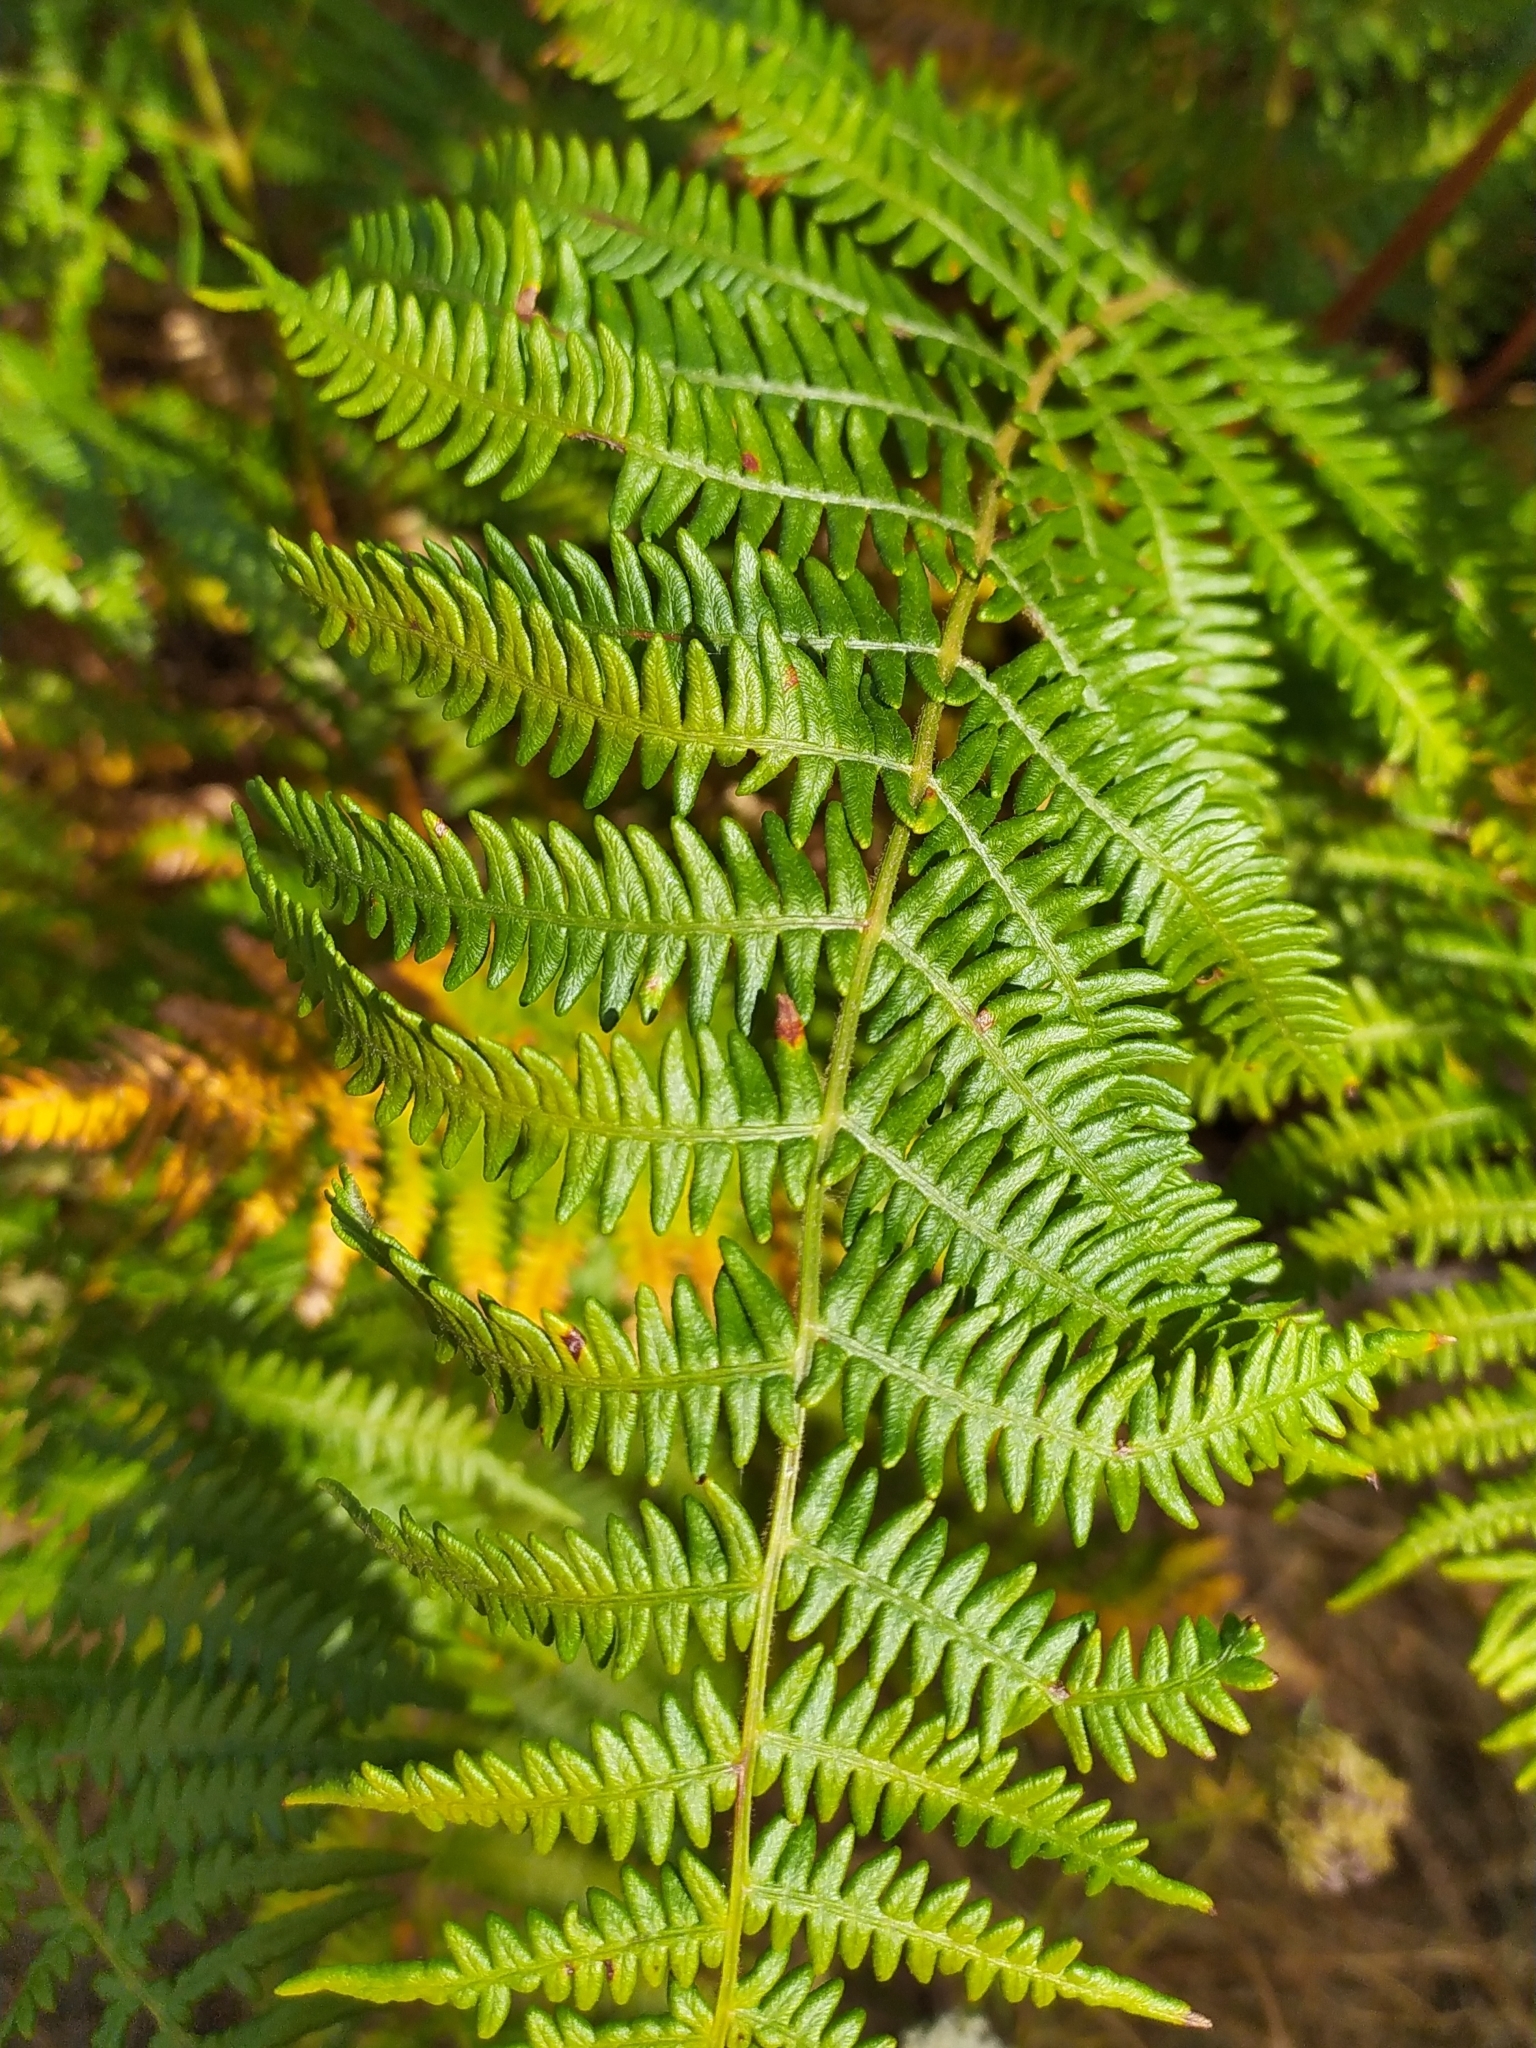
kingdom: Plantae
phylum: Tracheophyta
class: Polypodiopsida
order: Polypodiales
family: Dennstaedtiaceae
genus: Pteridium
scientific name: Pteridium aquilinum
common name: Bracken
